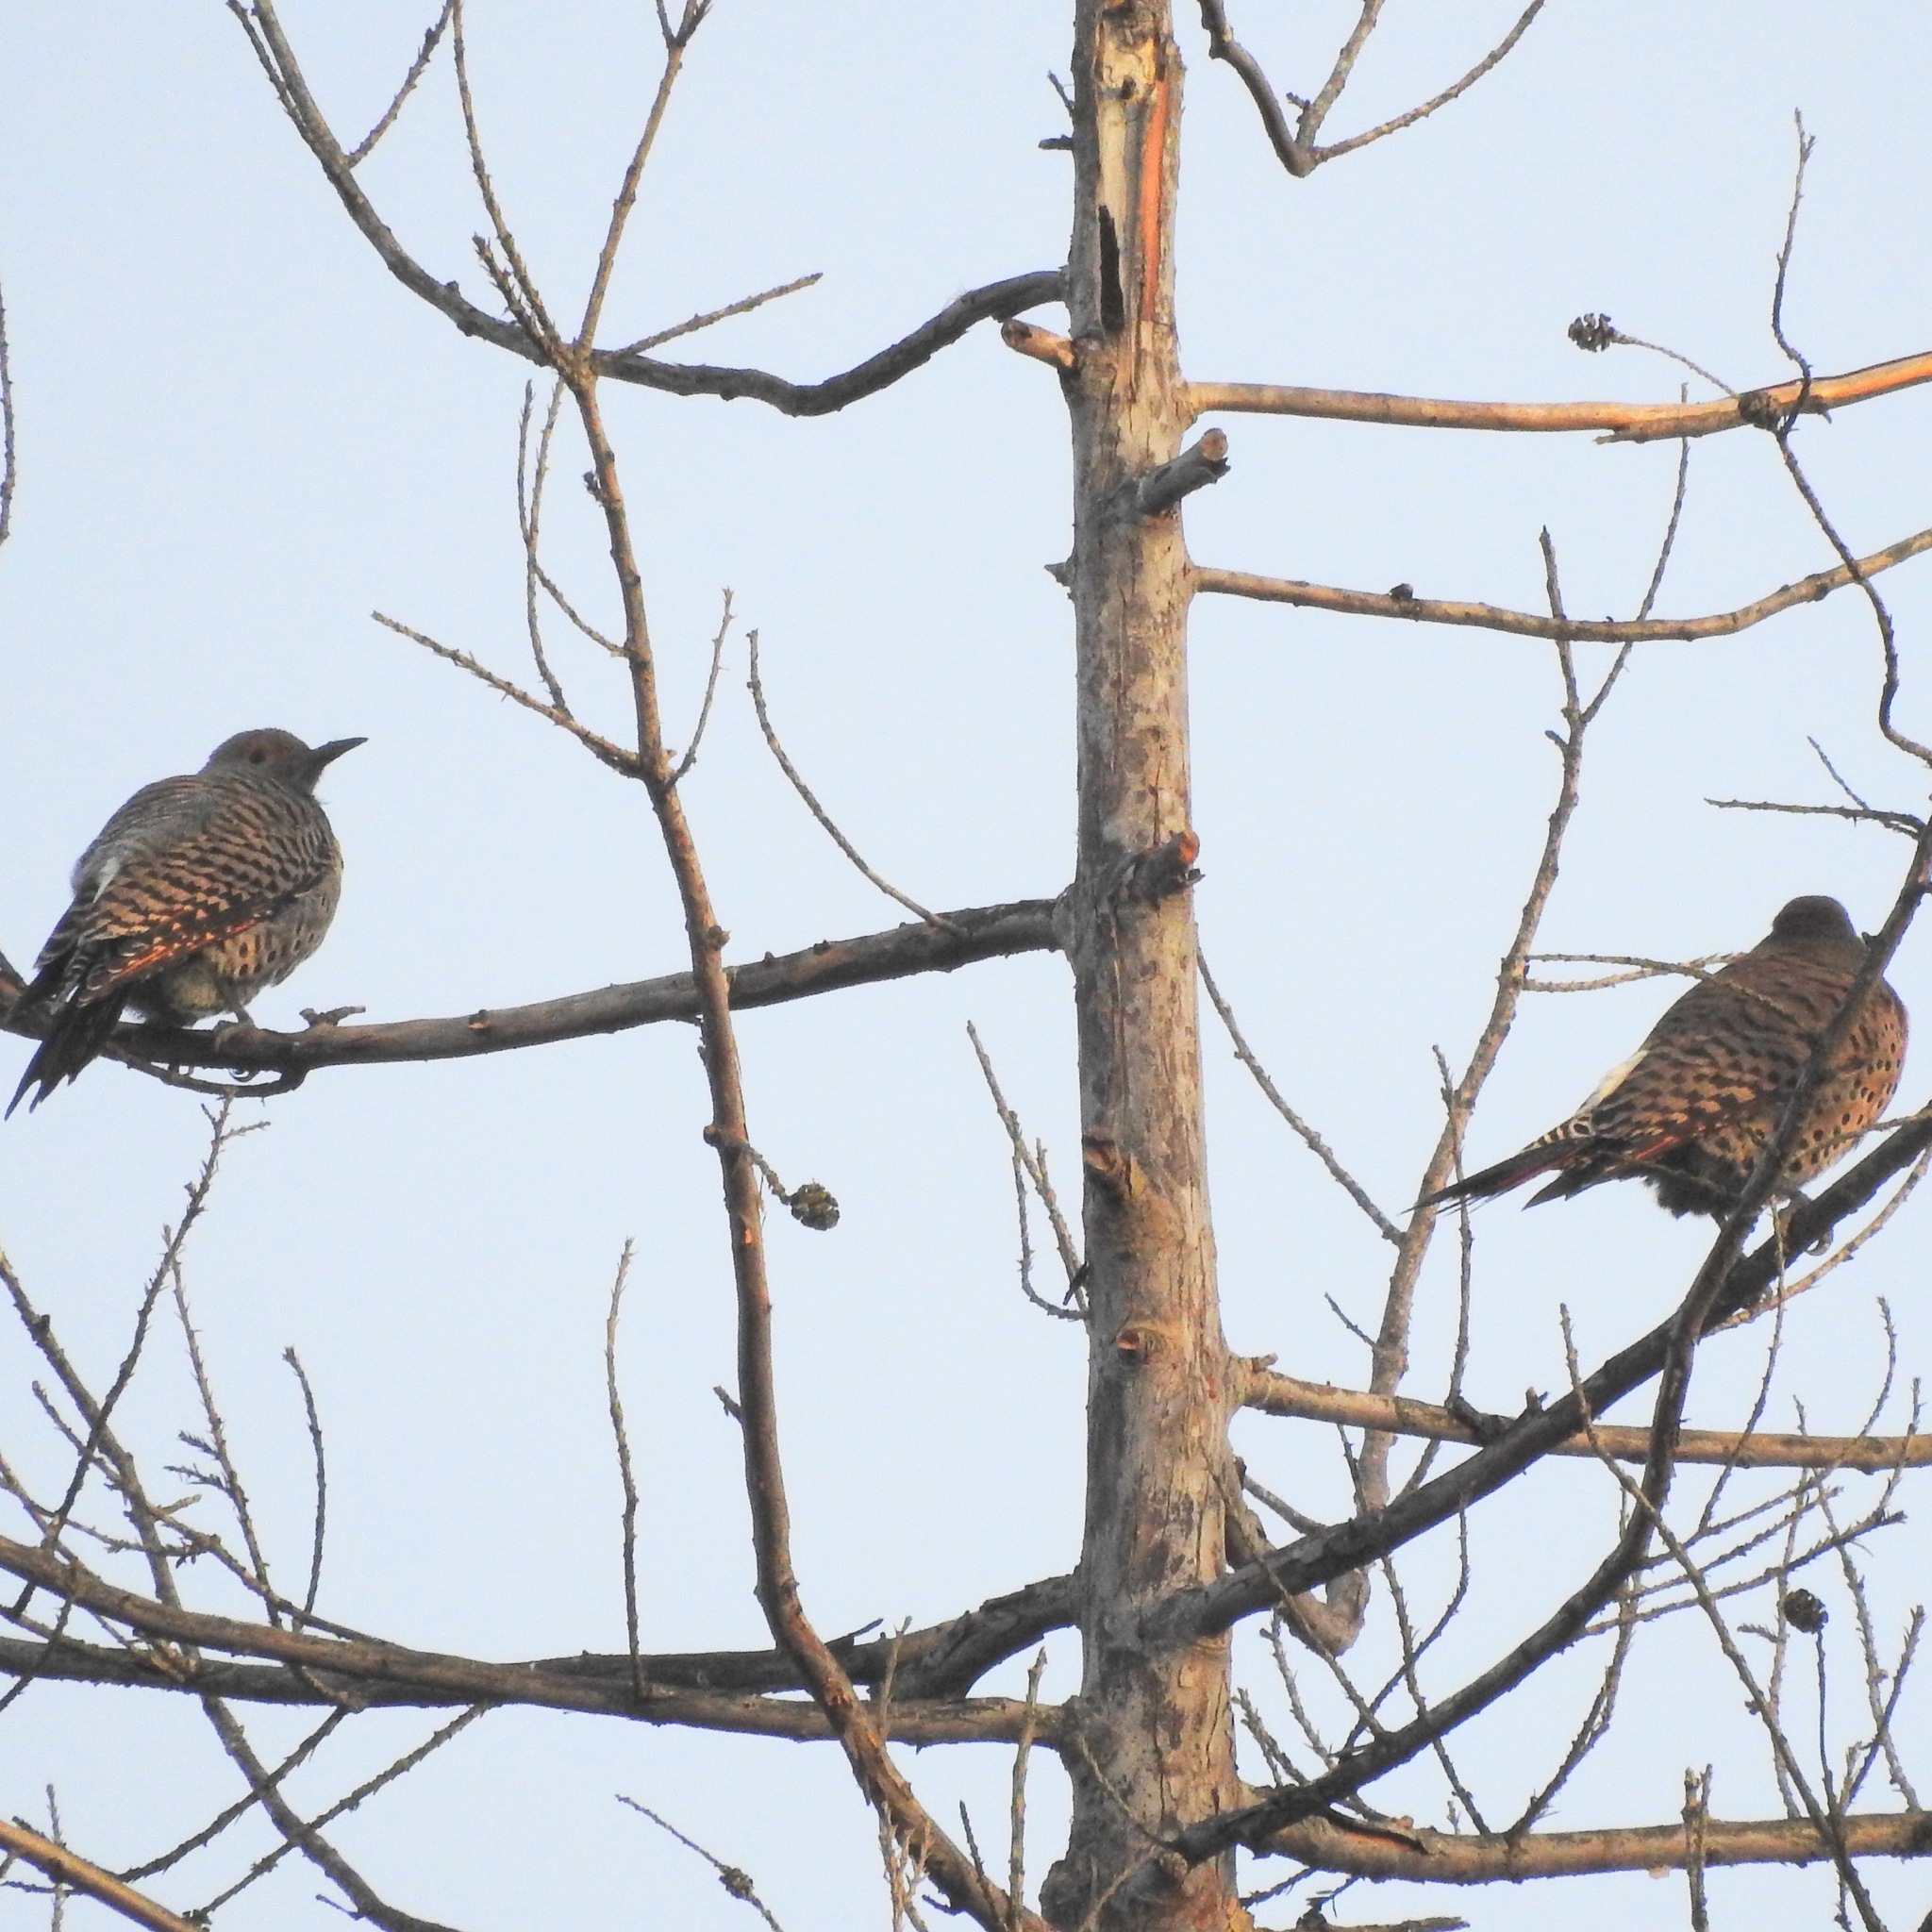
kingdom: Animalia
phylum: Chordata
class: Aves
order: Piciformes
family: Picidae
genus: Colaptes
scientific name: Colaptes auratus
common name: Northern flicker
